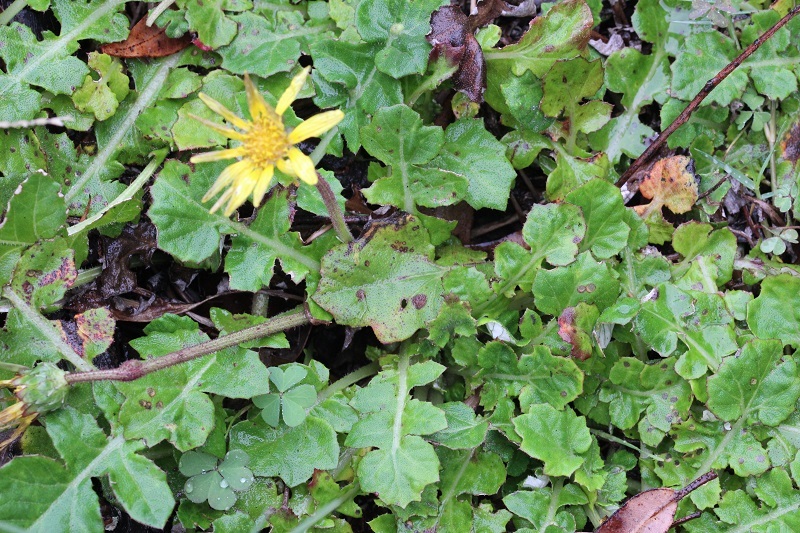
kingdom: Plantae
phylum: Tracheophyta
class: Magnoliopsida
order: Asterales
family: Asteraceae
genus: Arctotheca
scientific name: Arctotheca prostrata
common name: Capeweed
